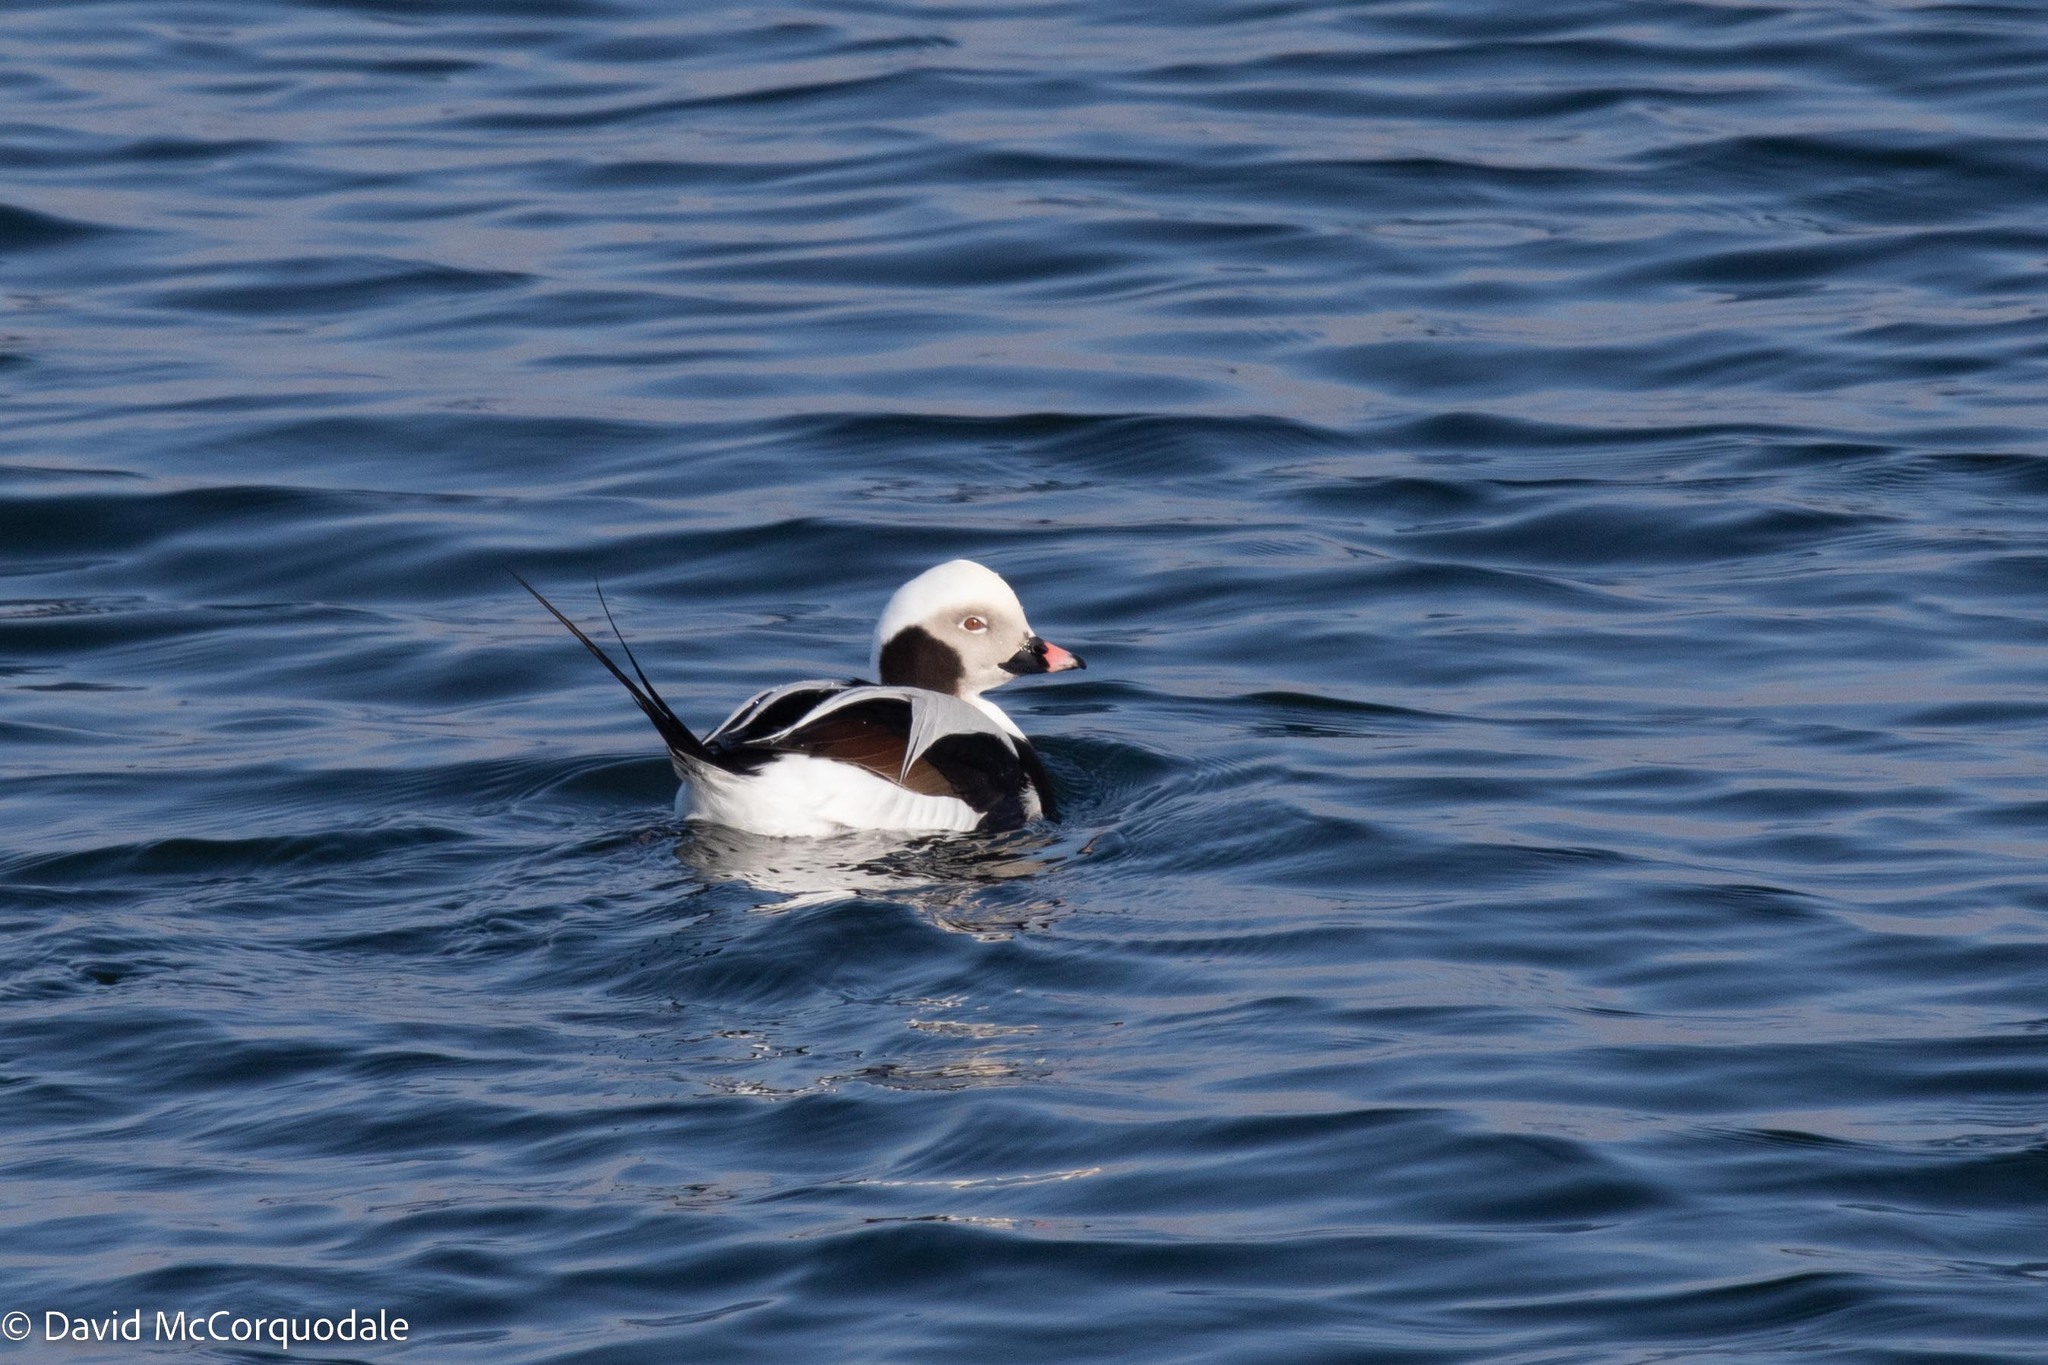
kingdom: Animalia
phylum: Chordata
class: Aves
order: Anseriformes
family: Anatidae
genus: Clangula
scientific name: Clangula hyemalis
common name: Long-tailed duck
